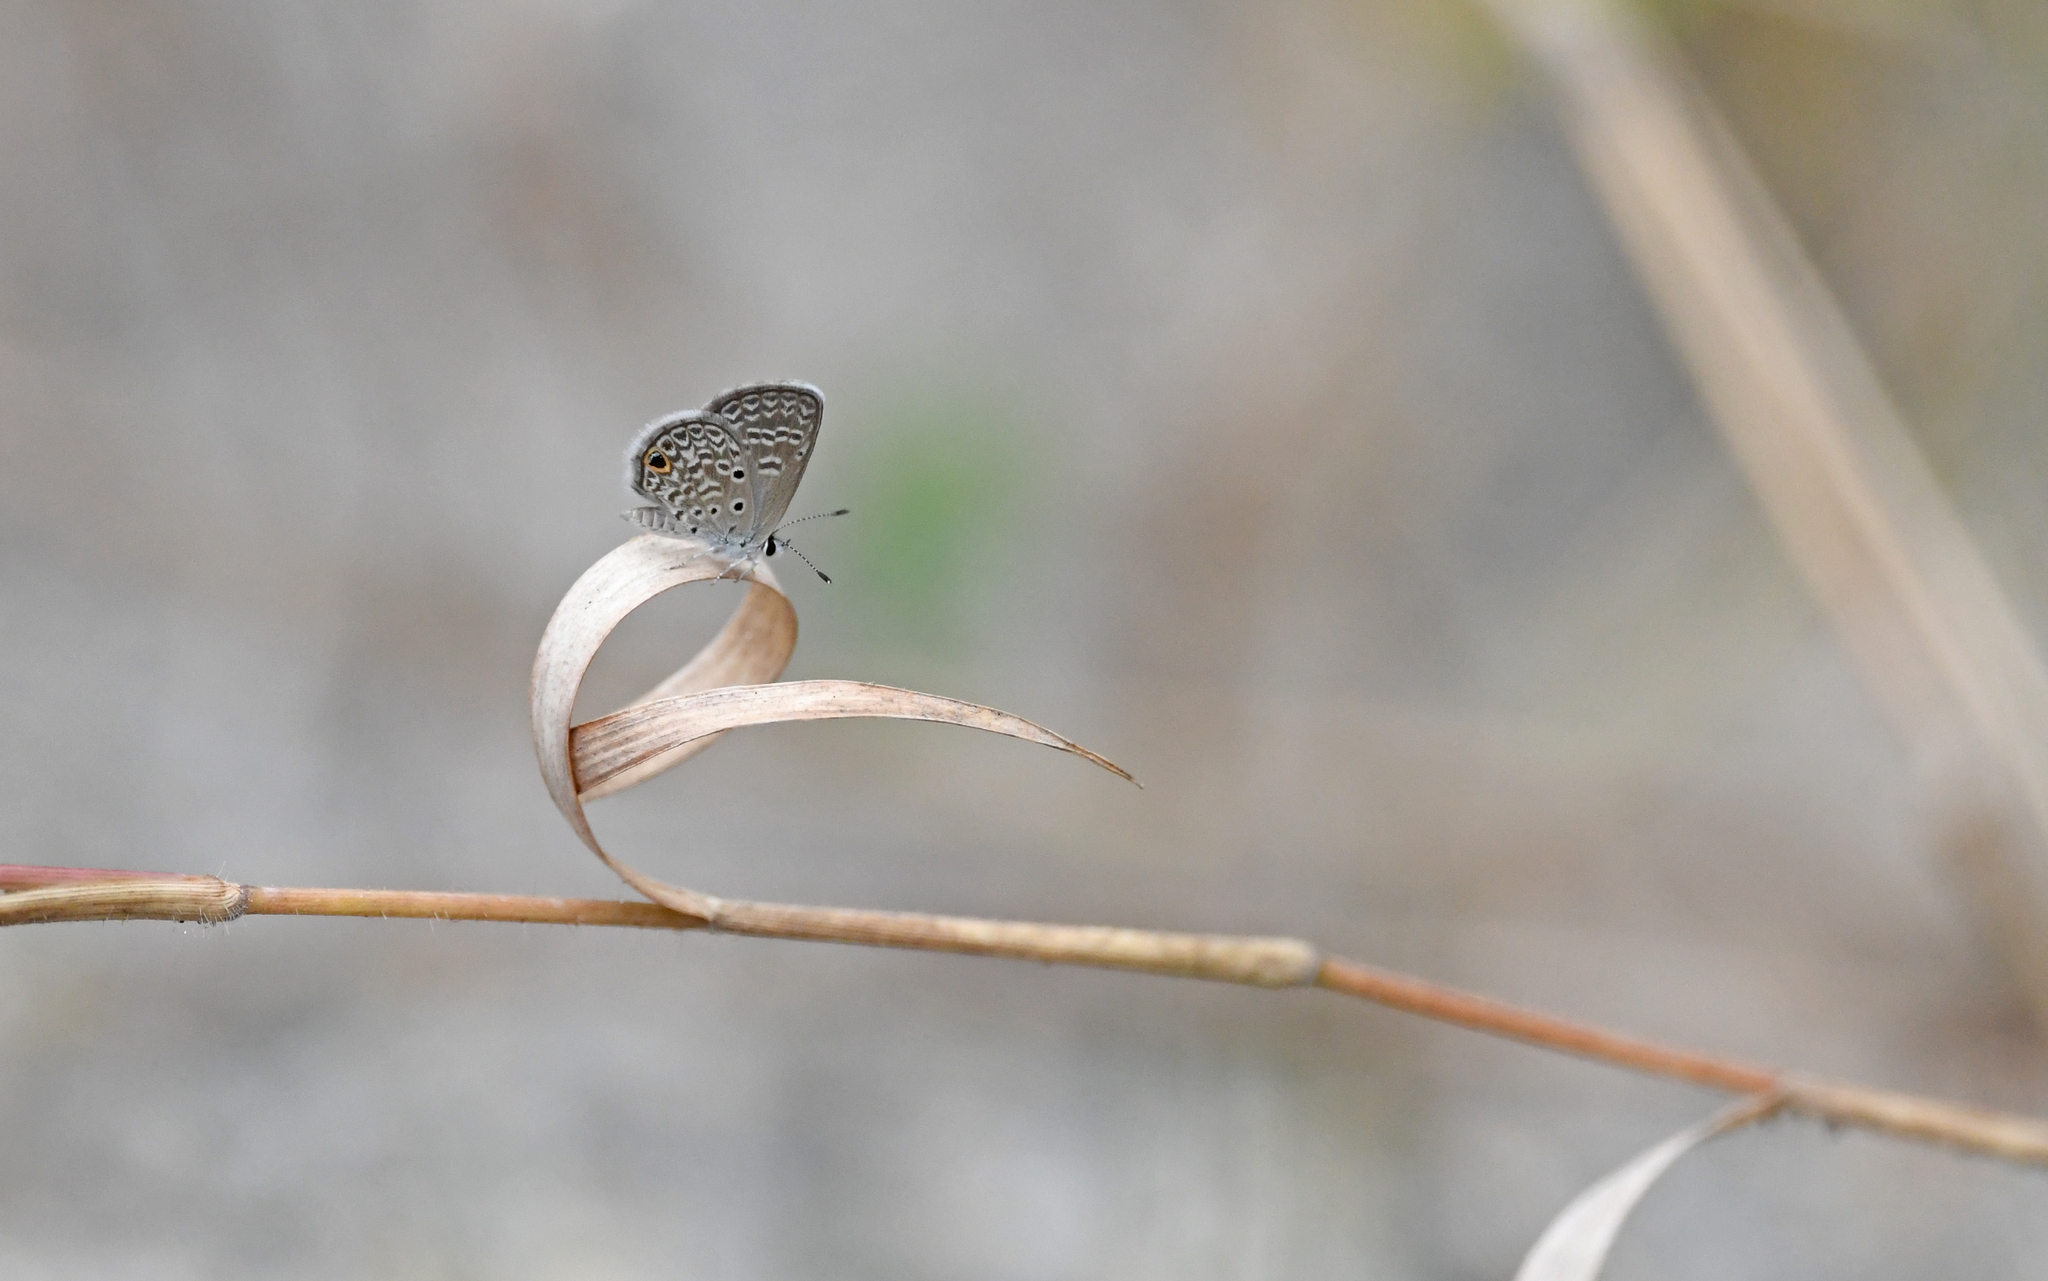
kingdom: Animalia
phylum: Arthropoda
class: Insecta
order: Lepidoptera
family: Lycaenidae
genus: Hemiargus
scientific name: Hemiargus hanno
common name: Common blue
